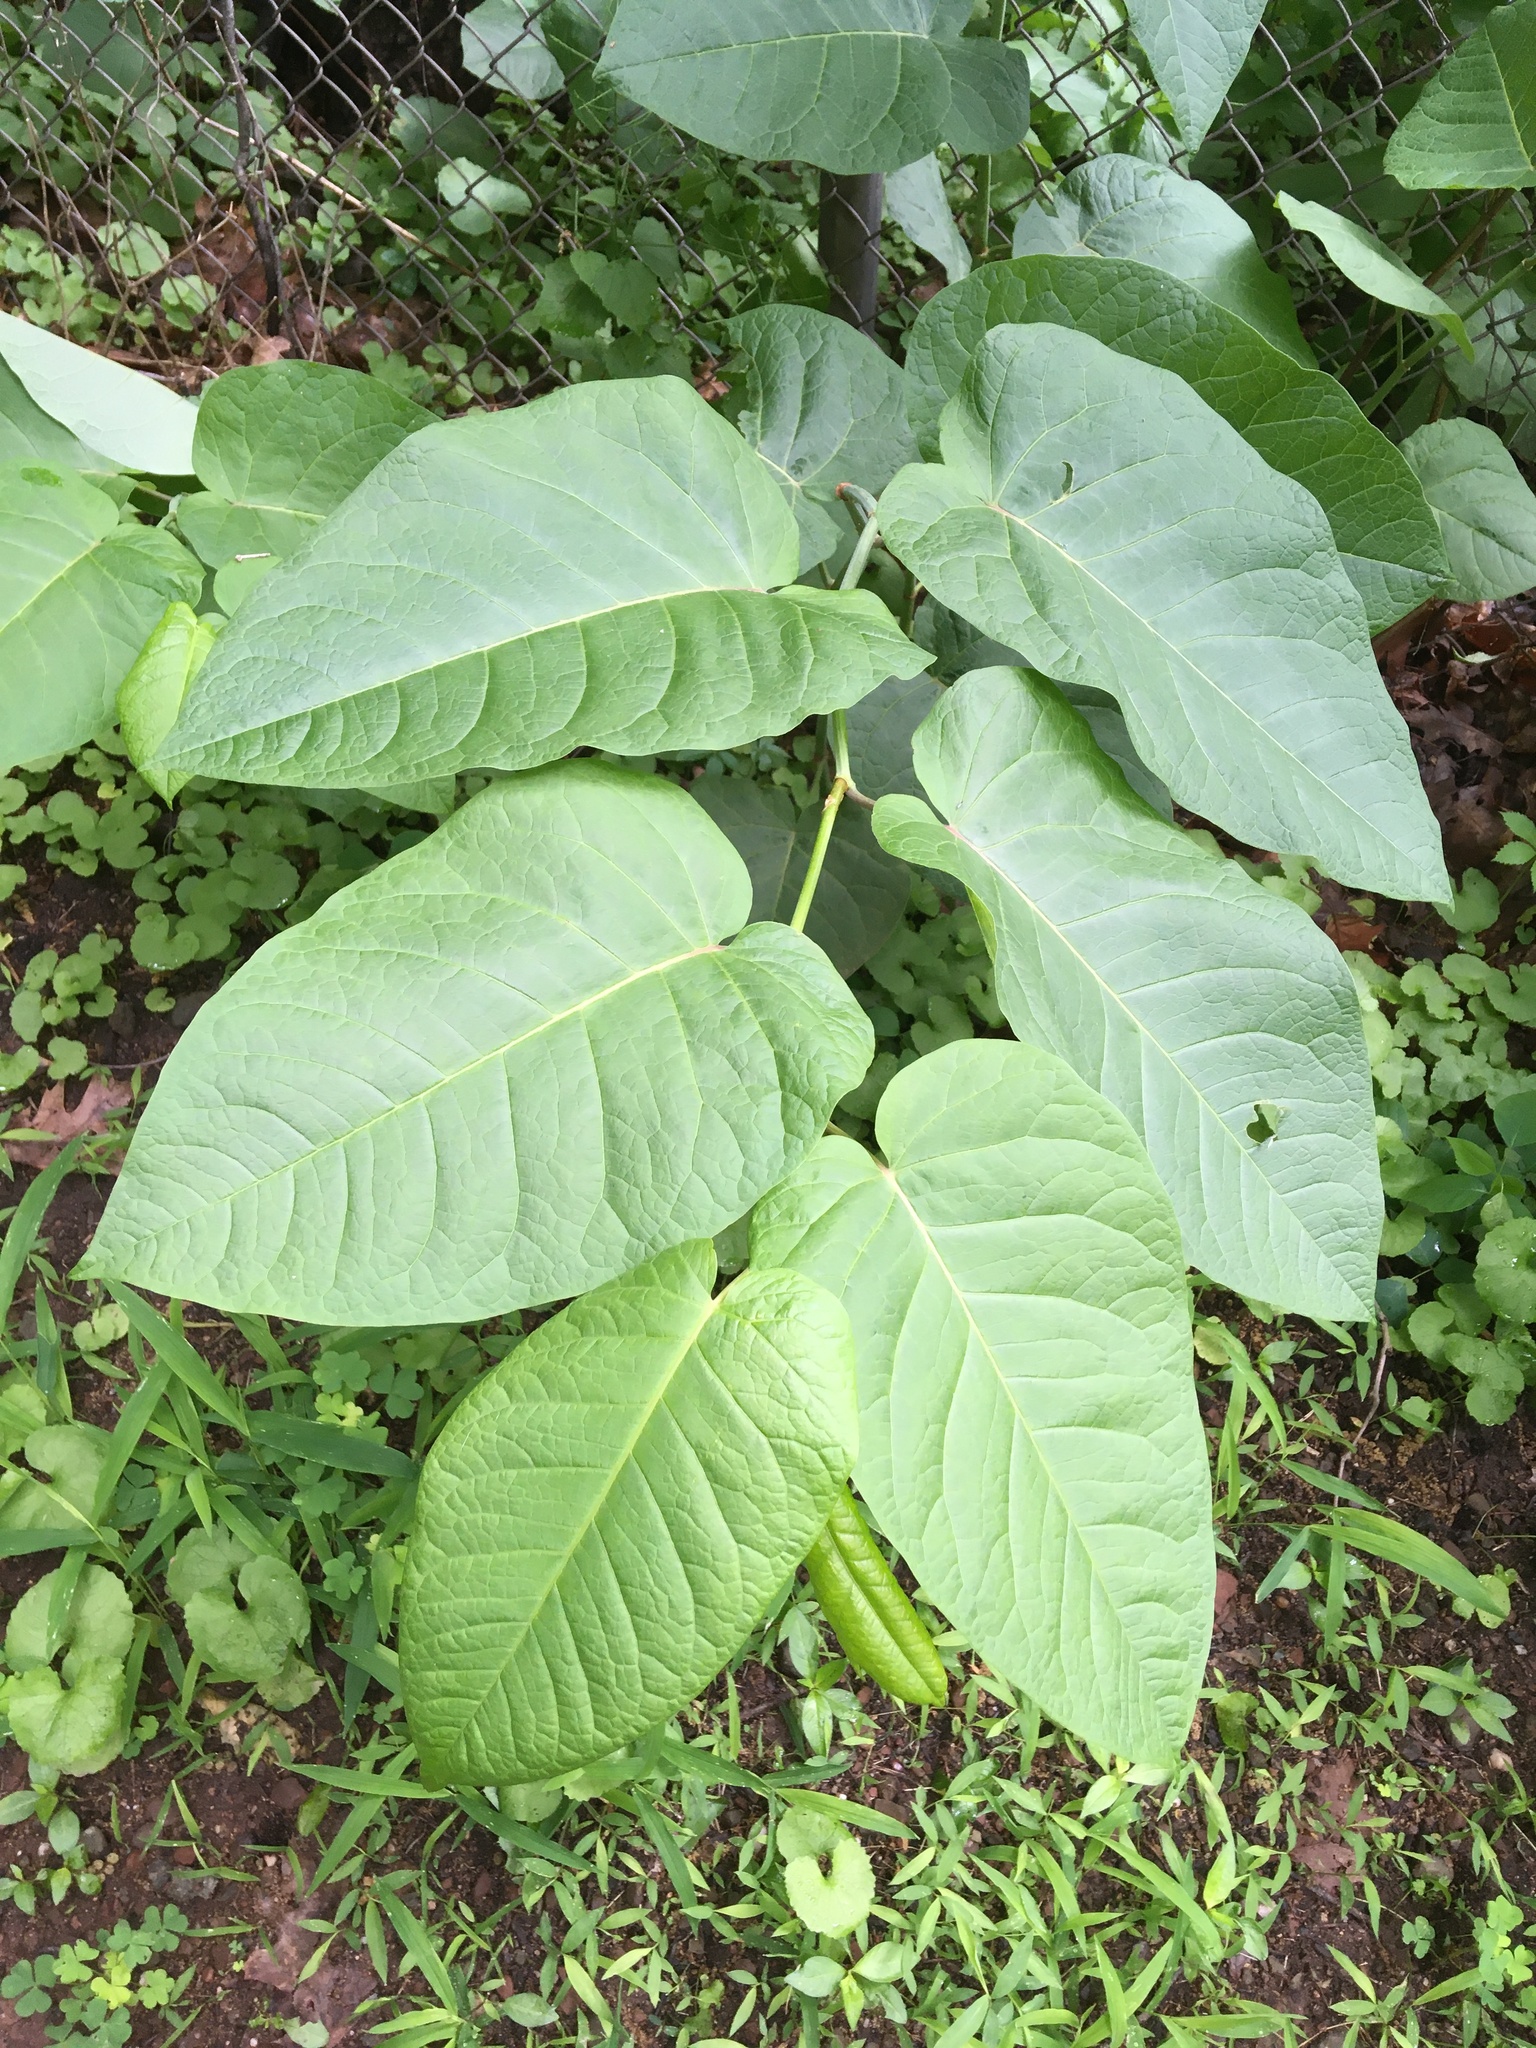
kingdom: Plantae
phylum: Tracheophyta
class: Magnoliopsida
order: Caryophyllales
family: Polygonaceae
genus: Reynoutria
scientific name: Reynoutria sachalinensis
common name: Giant knotweed
